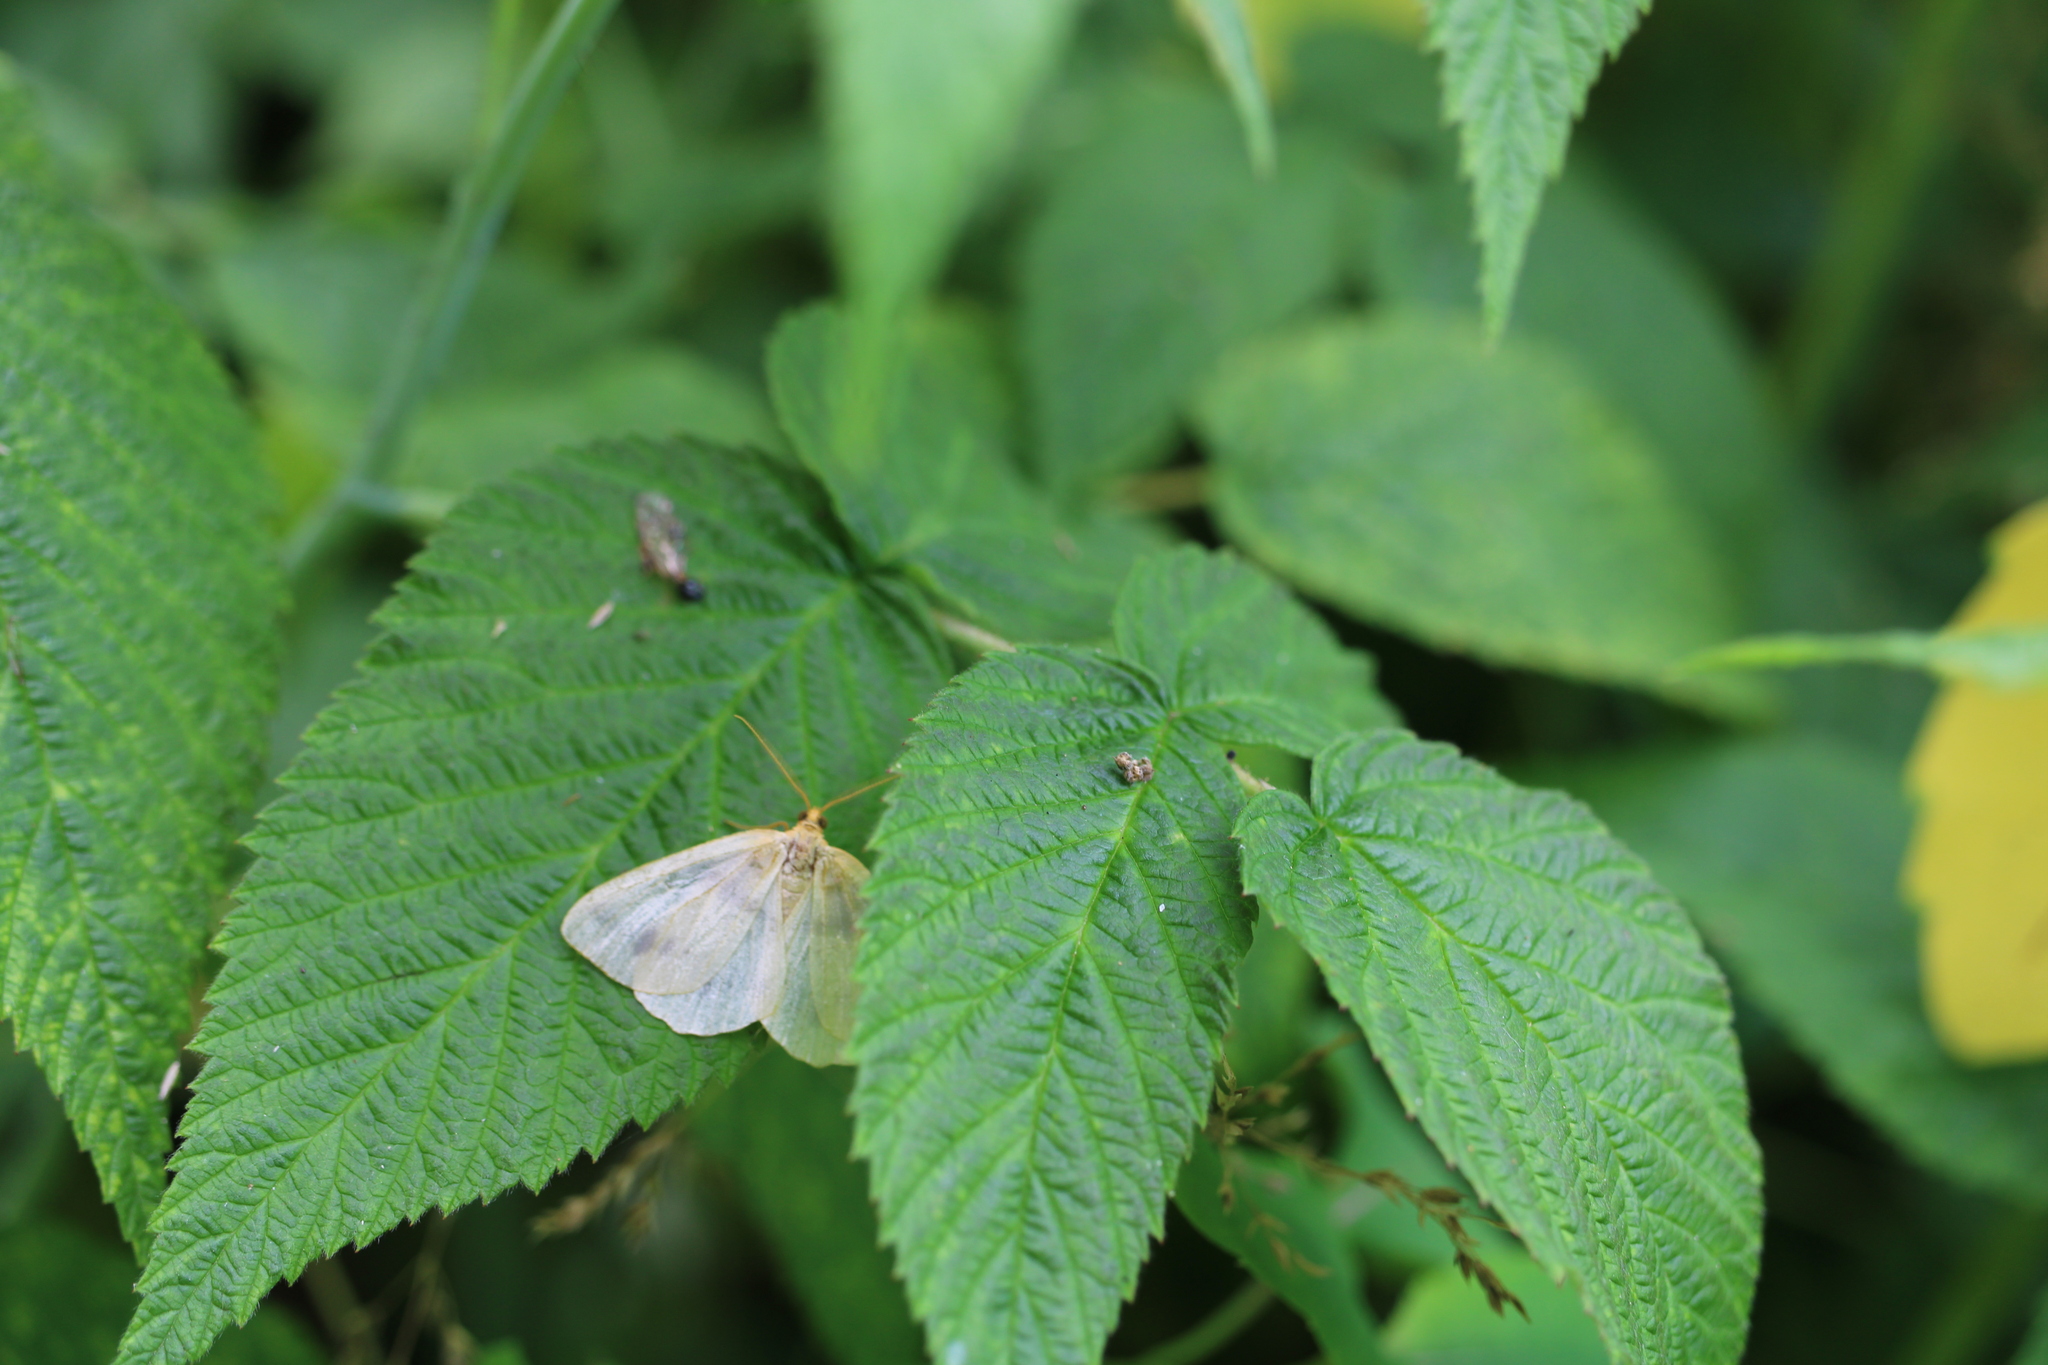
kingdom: Animalia
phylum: Arthropoda
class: Insecta
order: Lepidoptera
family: Geometridae
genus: Macaria
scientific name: Macaria ribearia
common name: Currant spanworm moth
